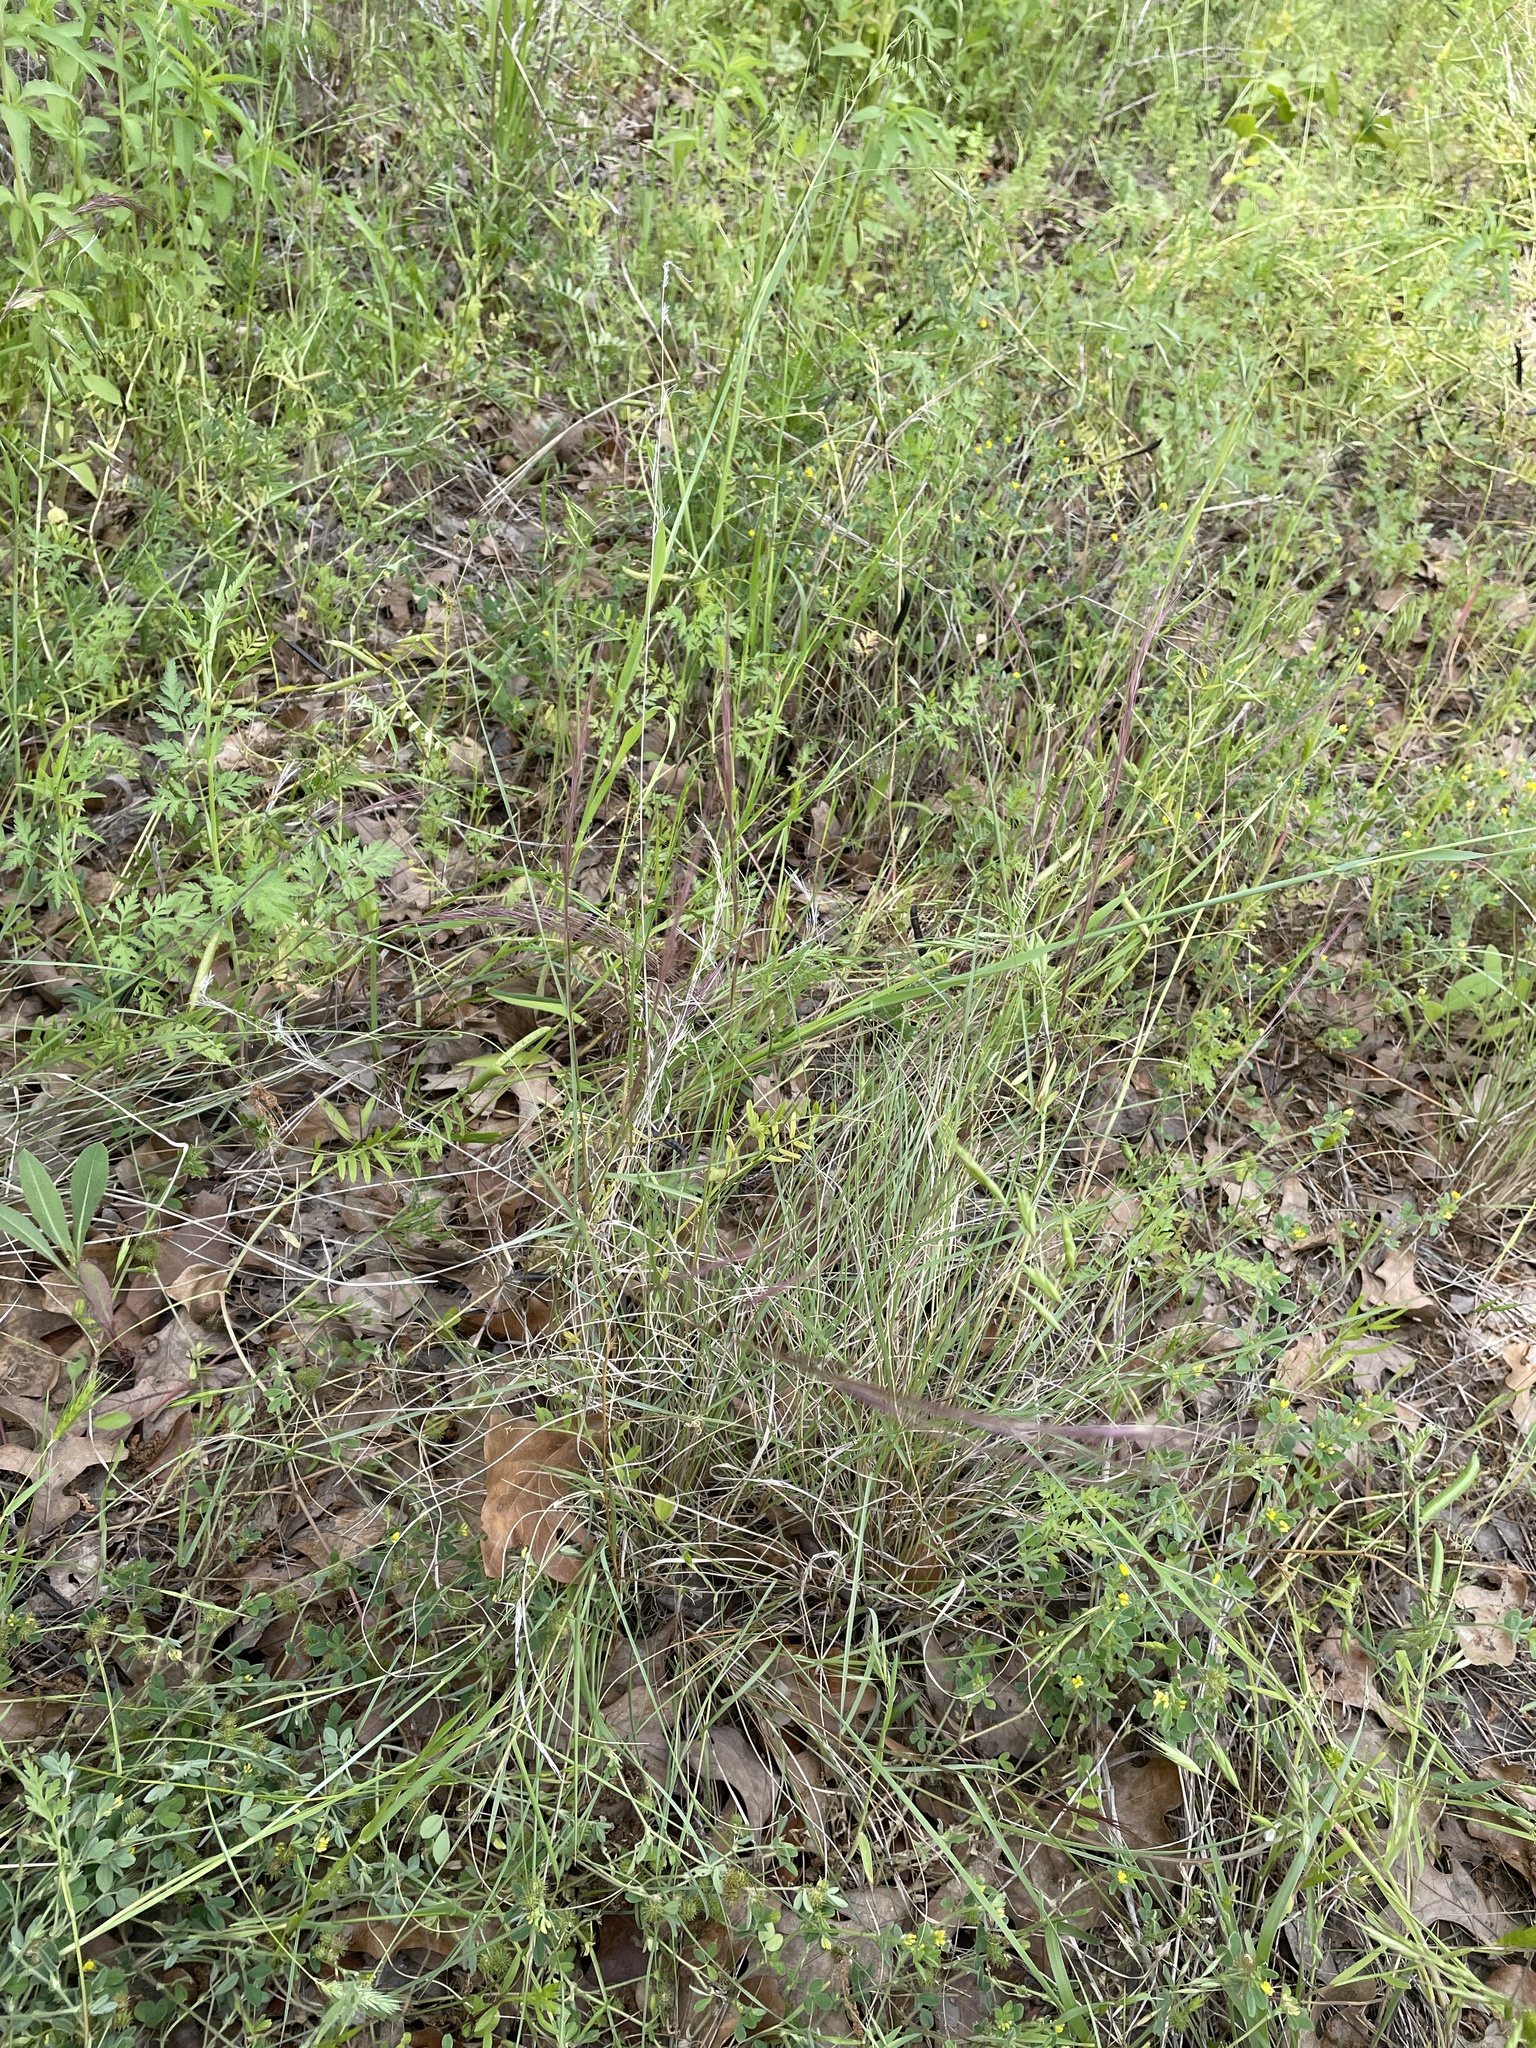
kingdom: Plantae
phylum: Tracheophyta
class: Liliopsida
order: Poales
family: Poaceae
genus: Aristida
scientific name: Aristida purpurea
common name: Purple threeawn
